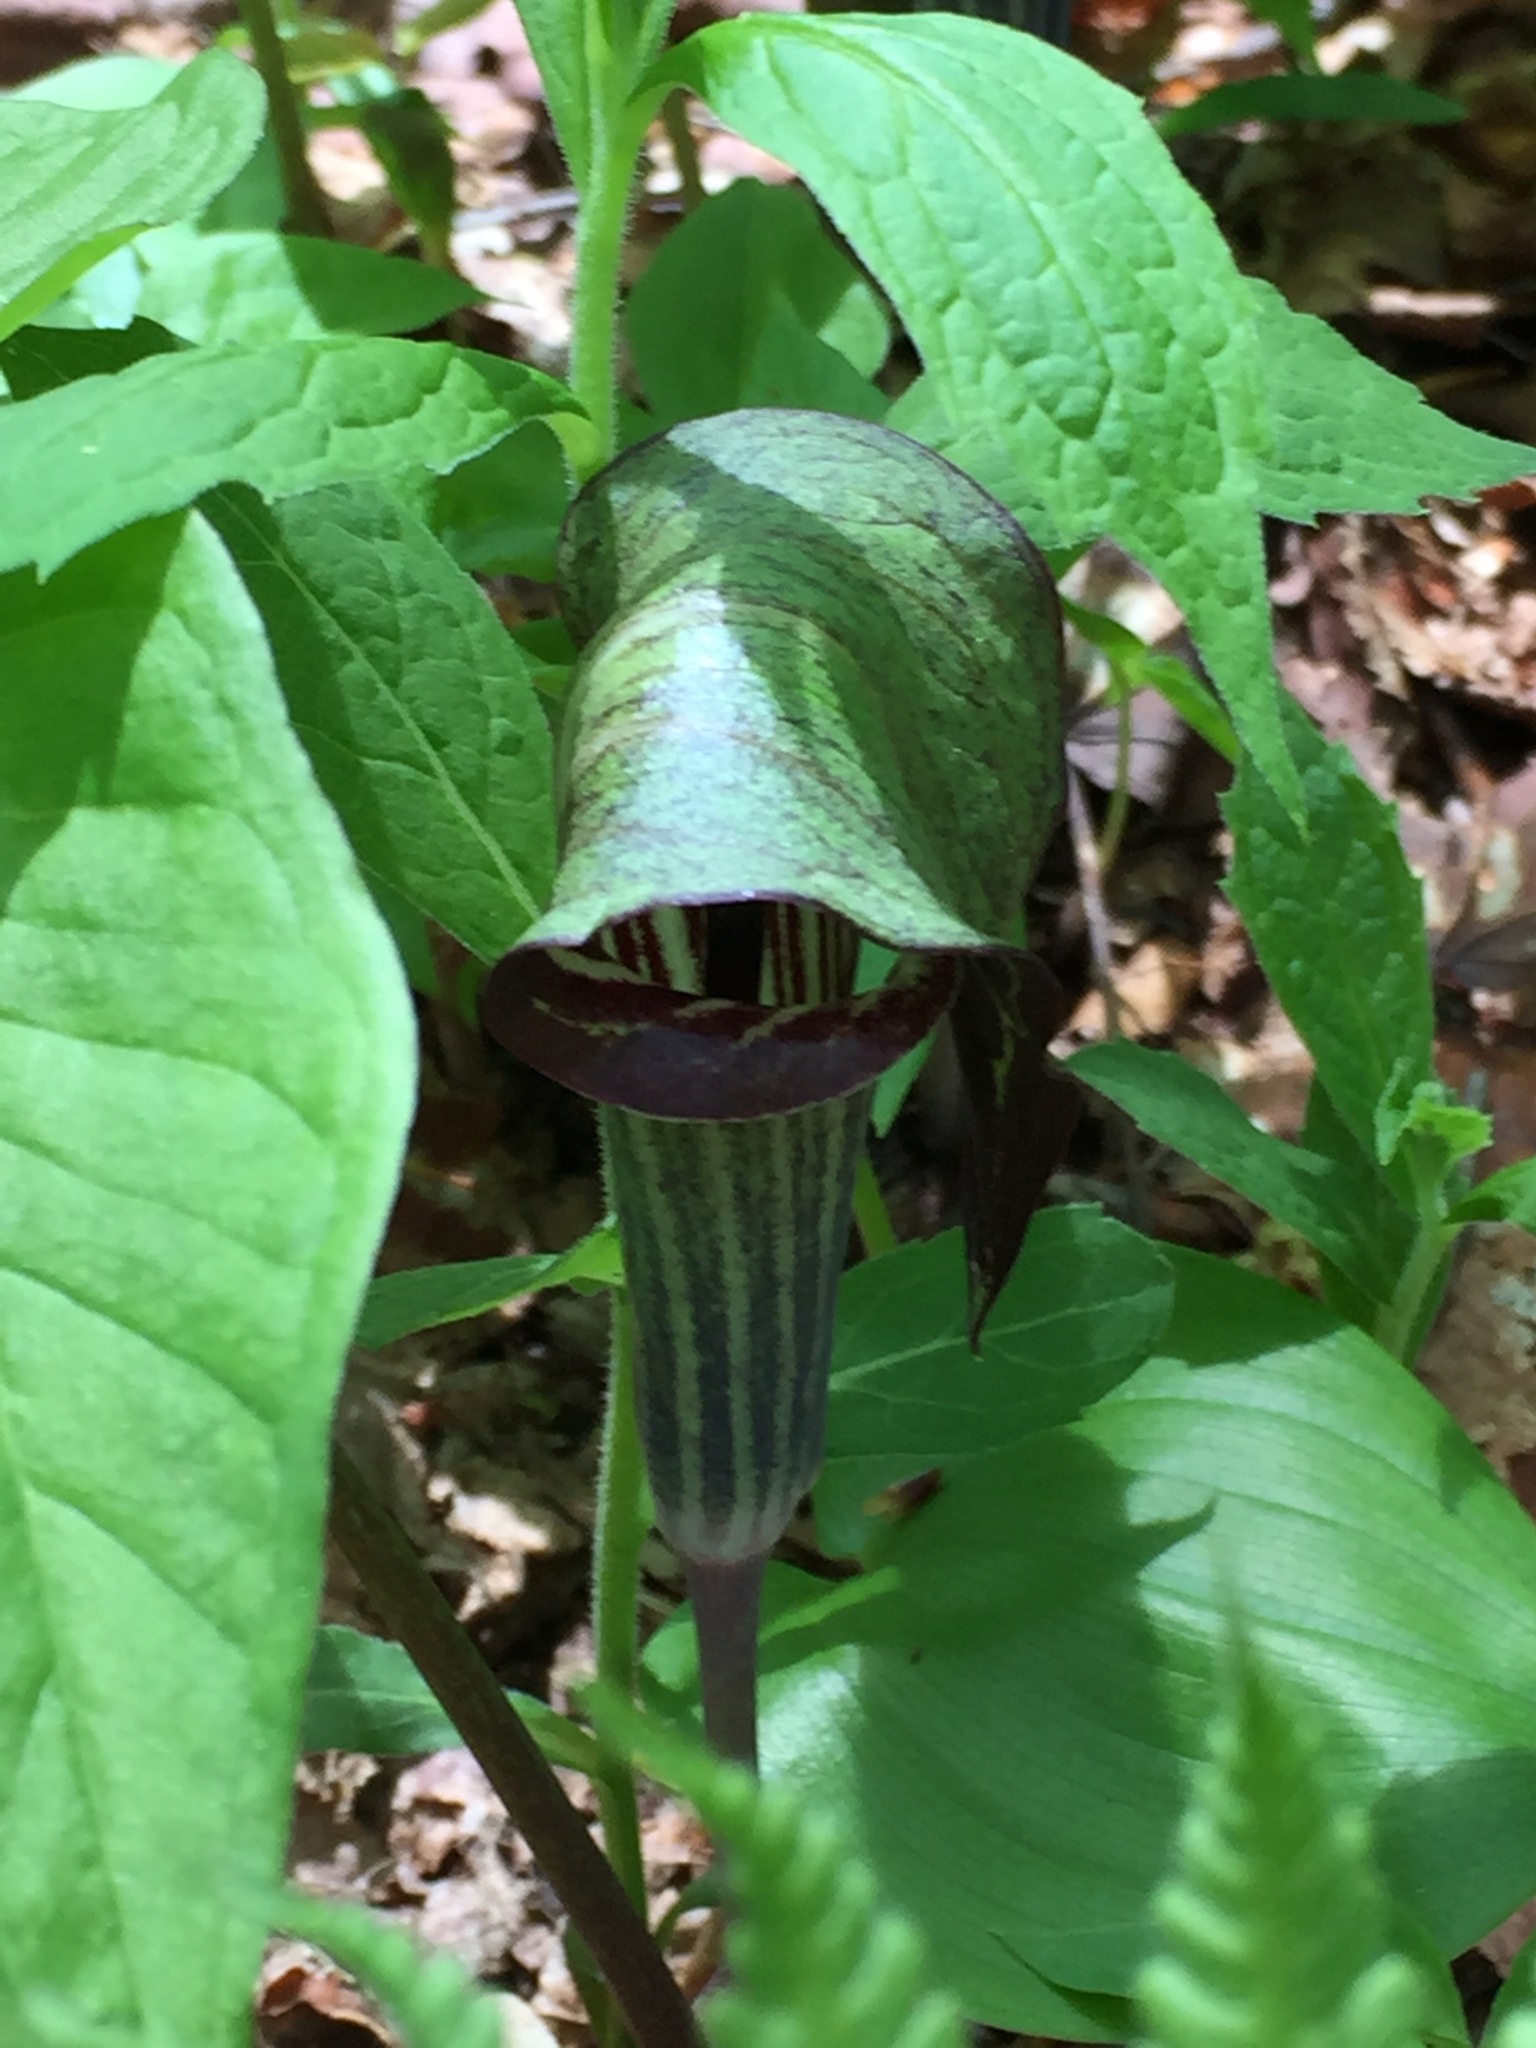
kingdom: Plantae
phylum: Tracheophyta
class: Liliopsida
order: Alismatales
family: Araceae
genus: Arisaema
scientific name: Arisaema triphyllum
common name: Jack-in-the-pulpit
